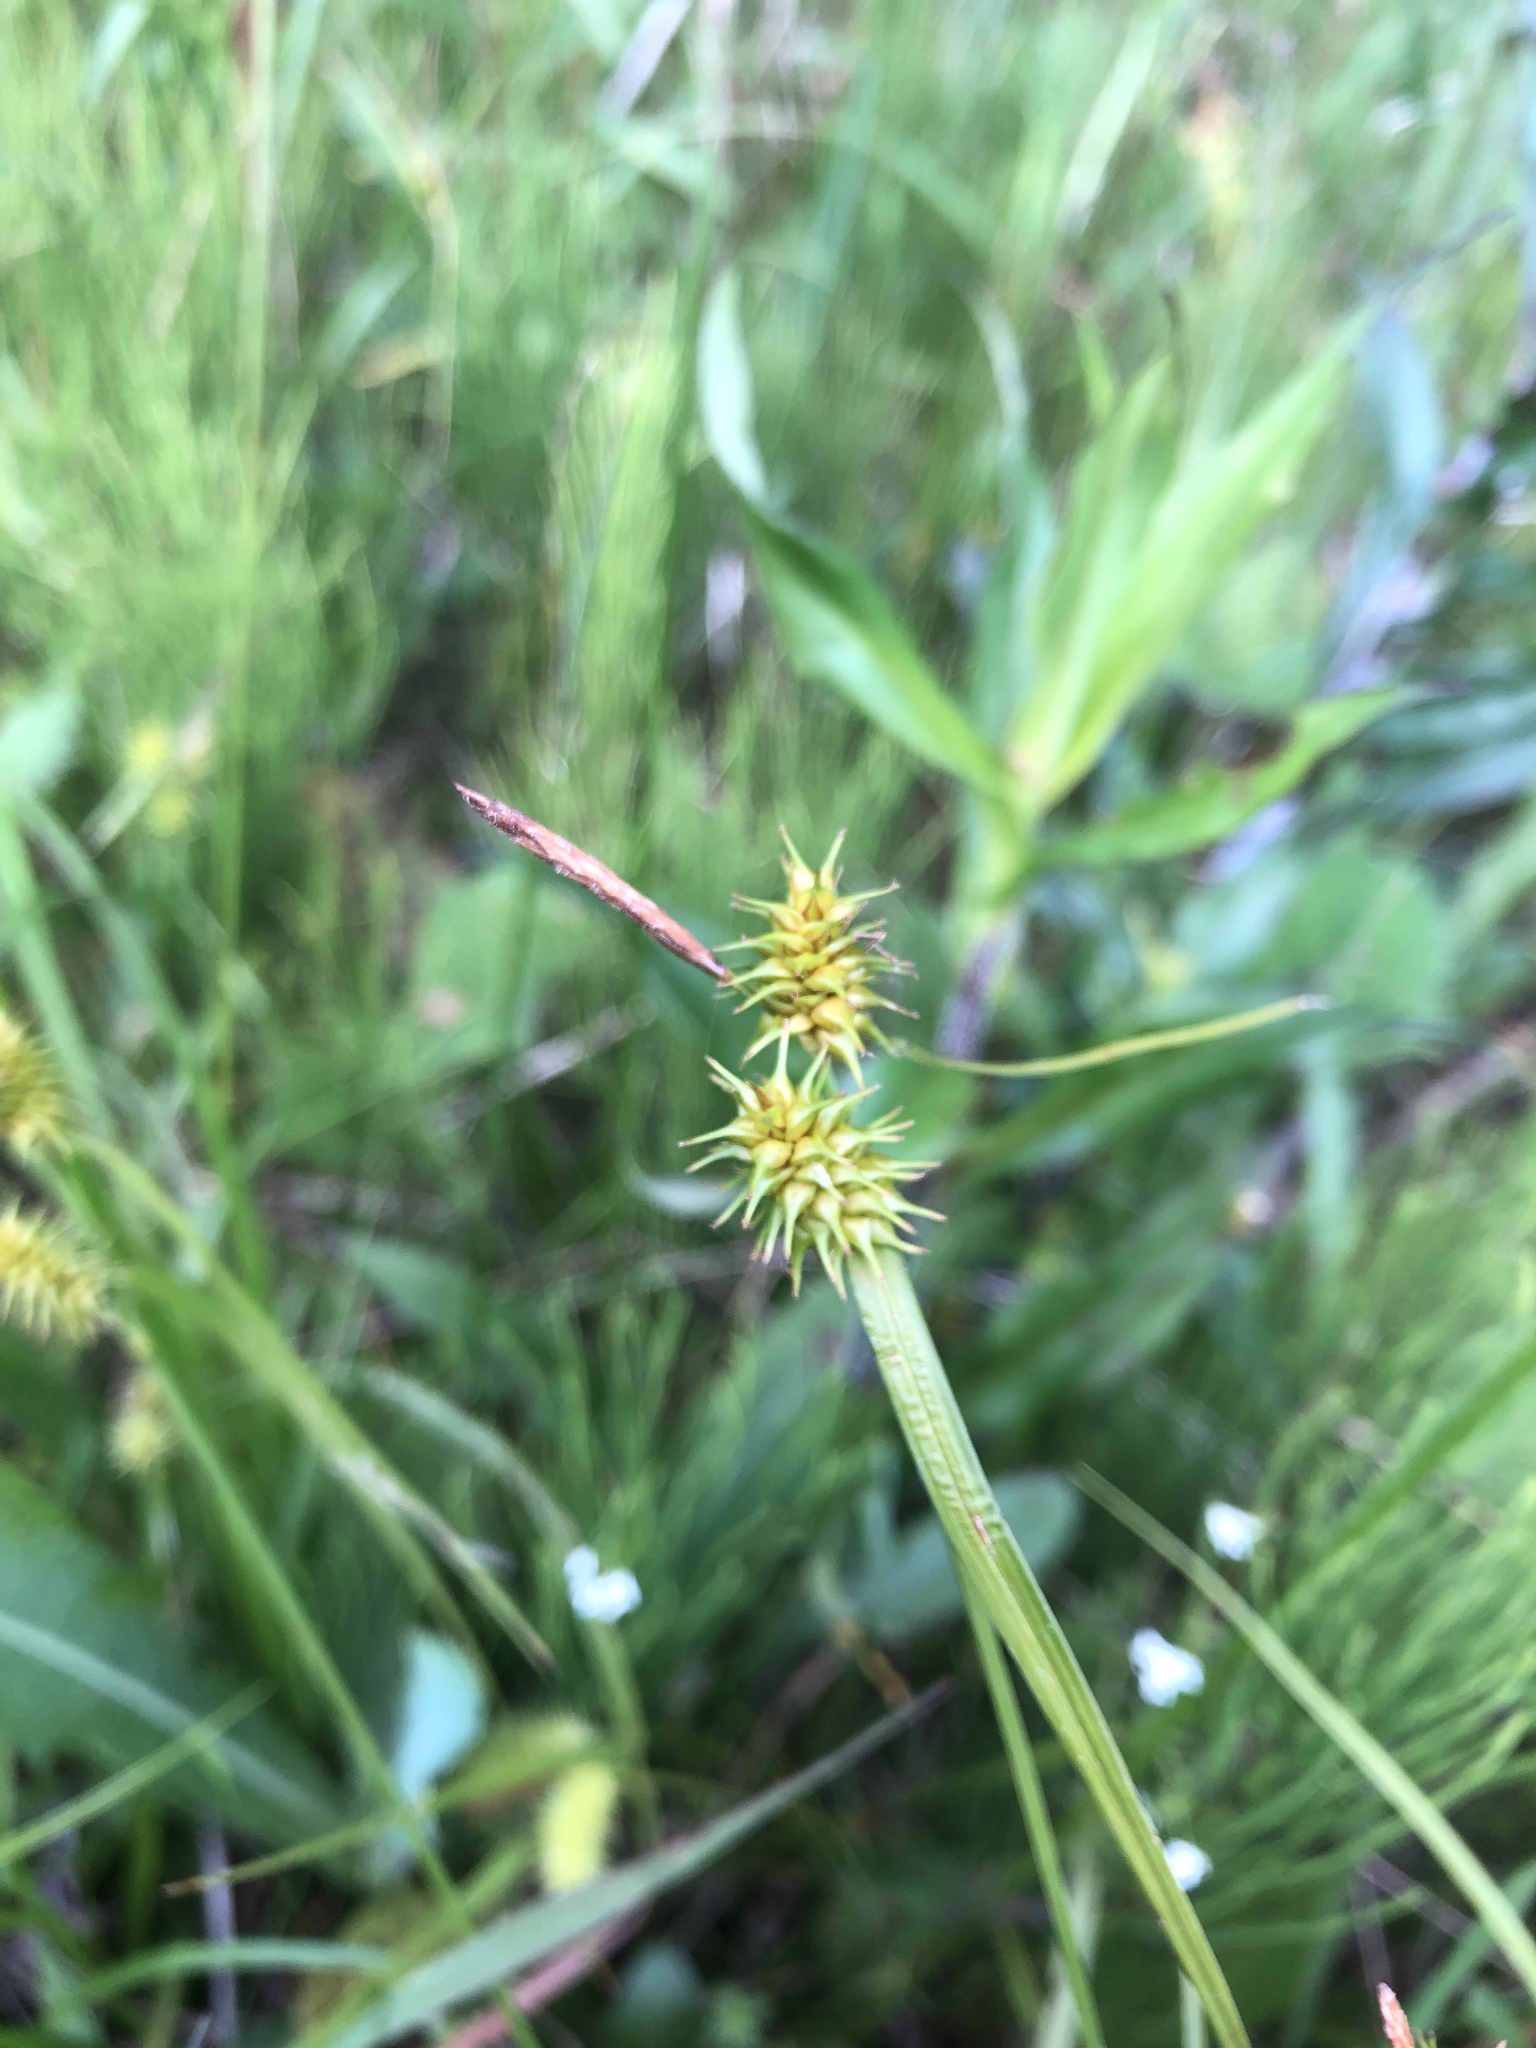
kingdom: Plantae
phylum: Tracheophyta
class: Liliopsida
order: Poales
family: Cyperaceae
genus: Carex
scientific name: Carex flava
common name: Large yellow-sedge
